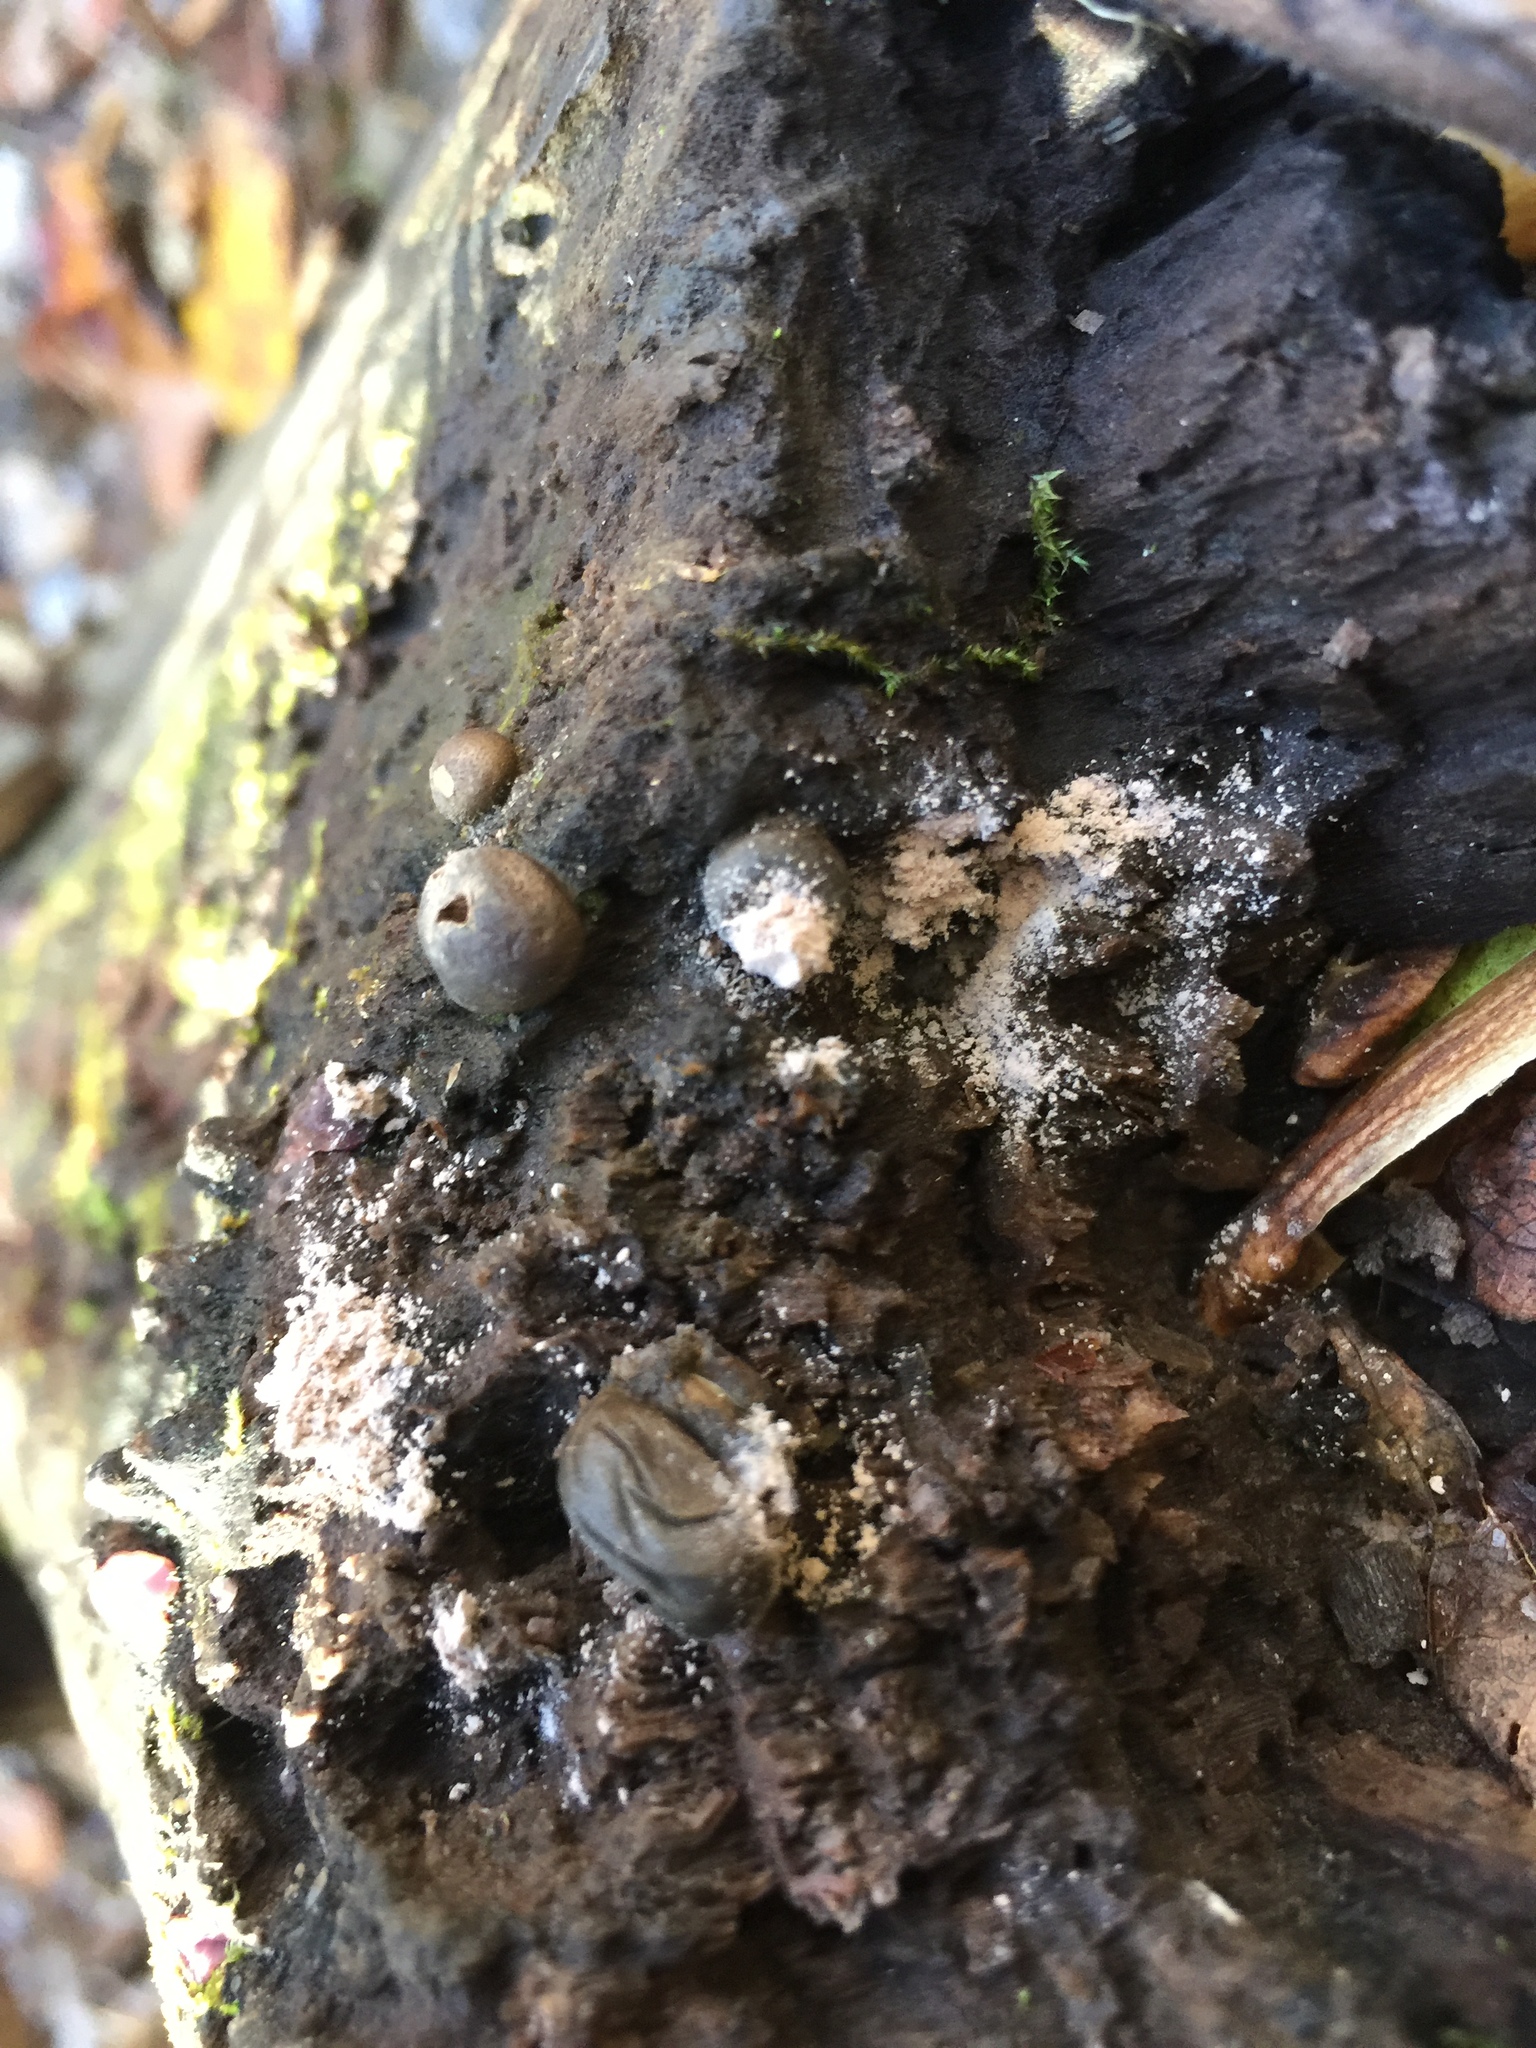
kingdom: Protozoa
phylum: Mycetozoa
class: Myxomycetes
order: Cribrariales
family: Tubiferaceae
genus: Lycogala
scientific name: Lycogala epidendrum
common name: Wolf's milk
